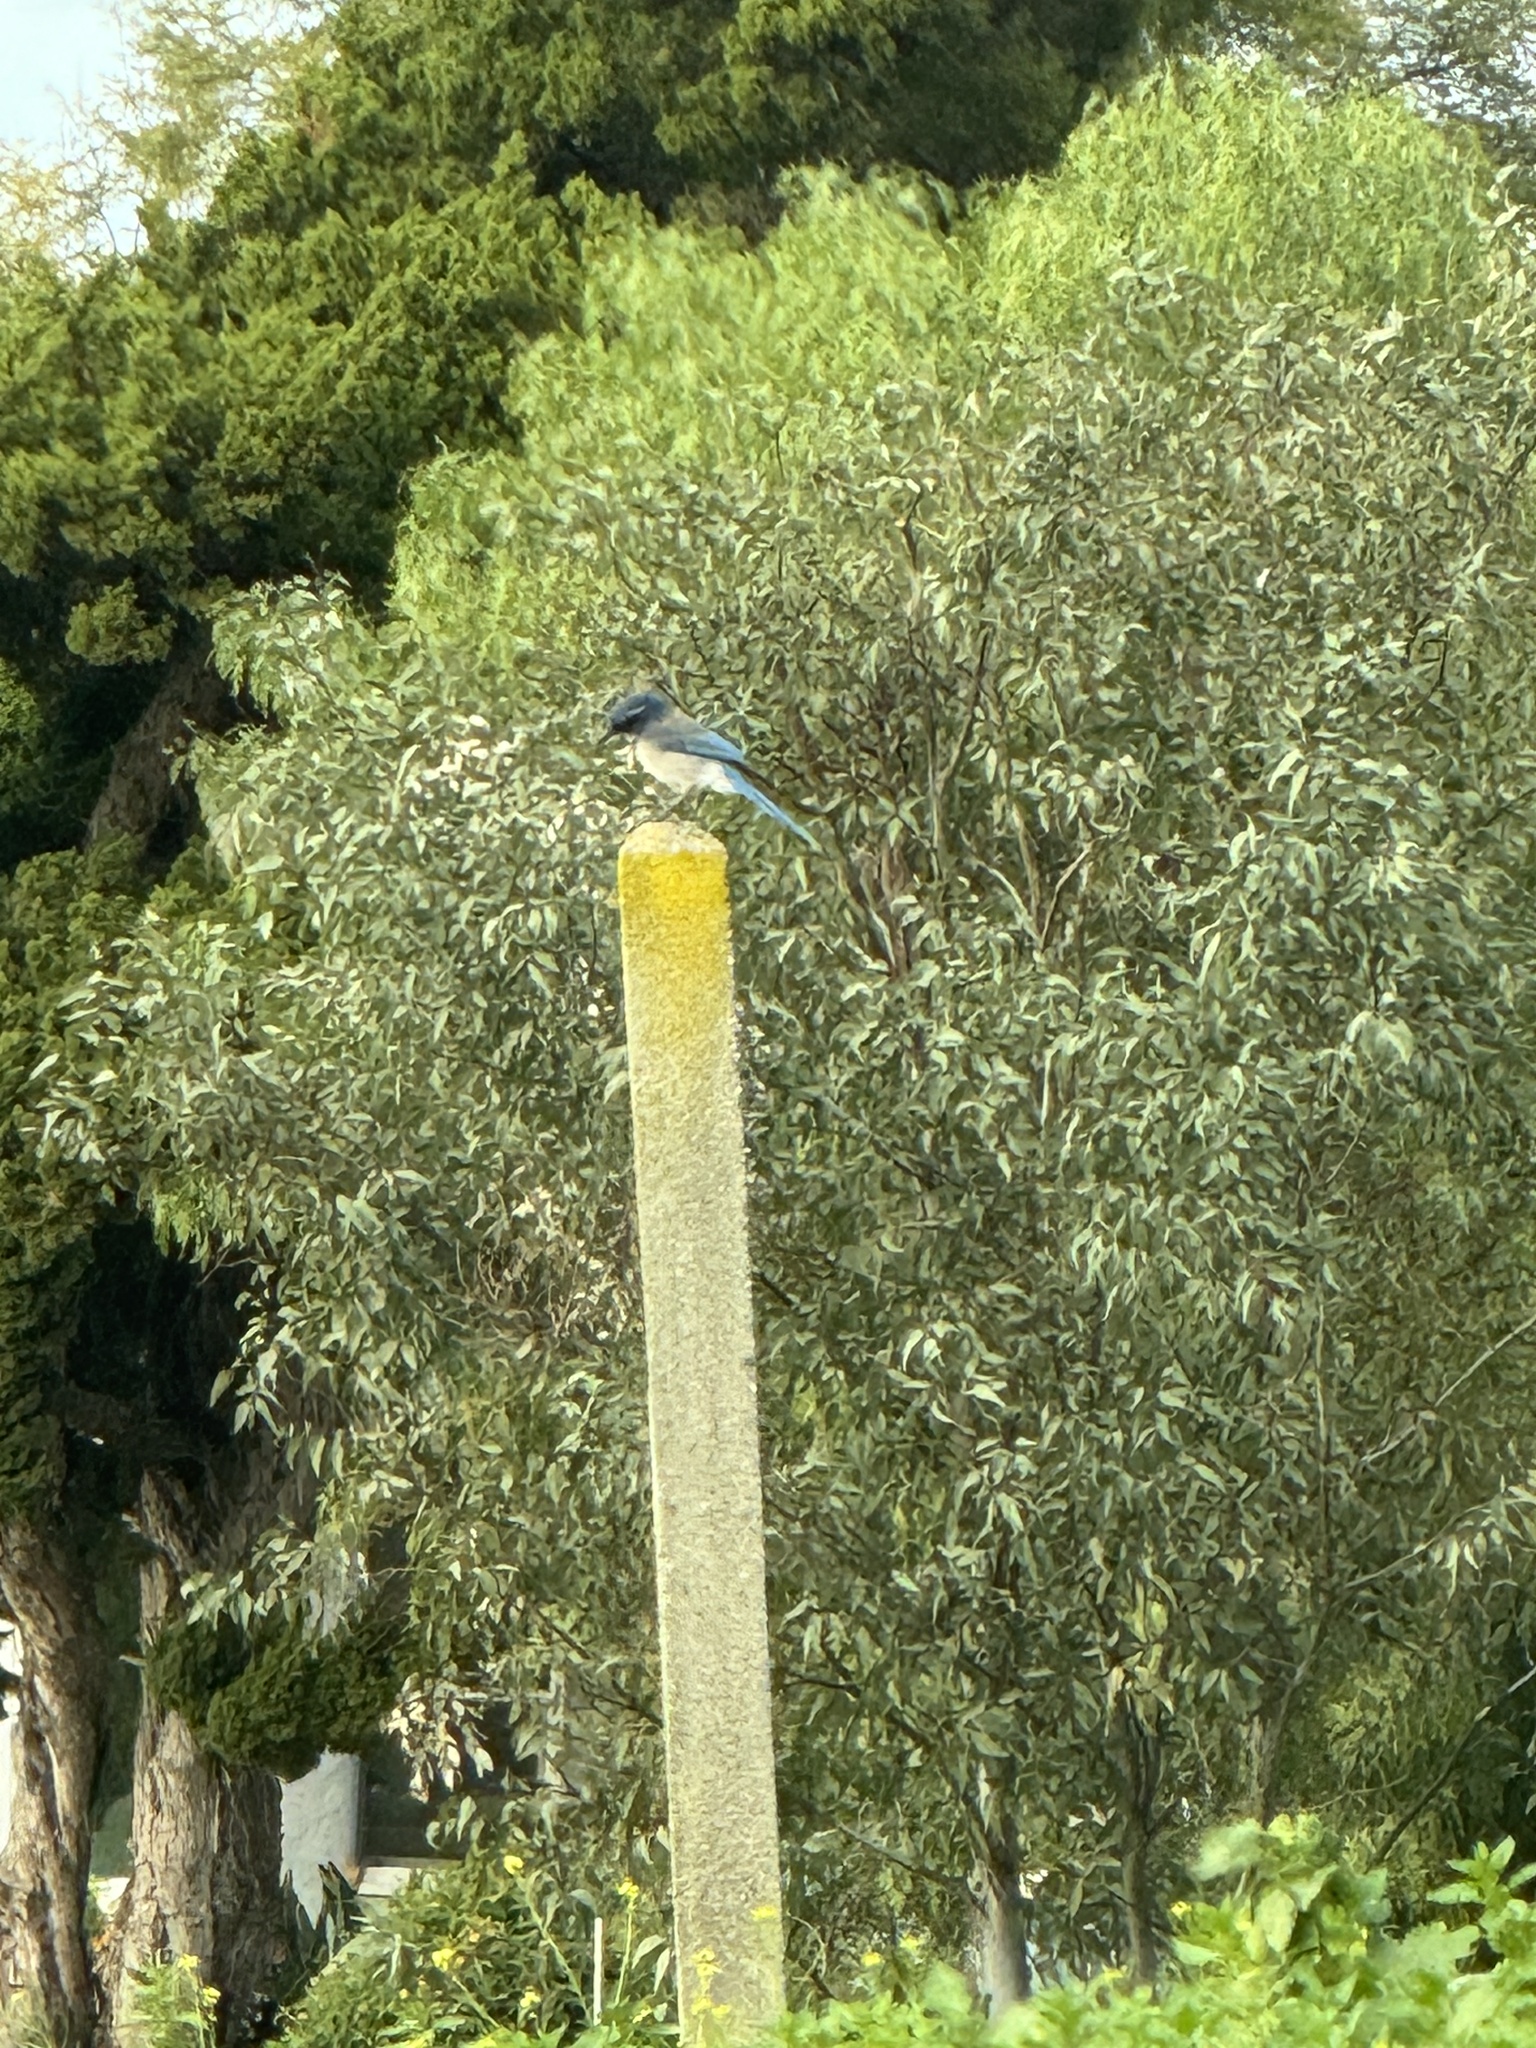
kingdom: Animalia
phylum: Chordata
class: Aves
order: Passeriformes
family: Corvidae
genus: Aphelocoma
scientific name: Aphelocoma californica
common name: California scrub-jay
